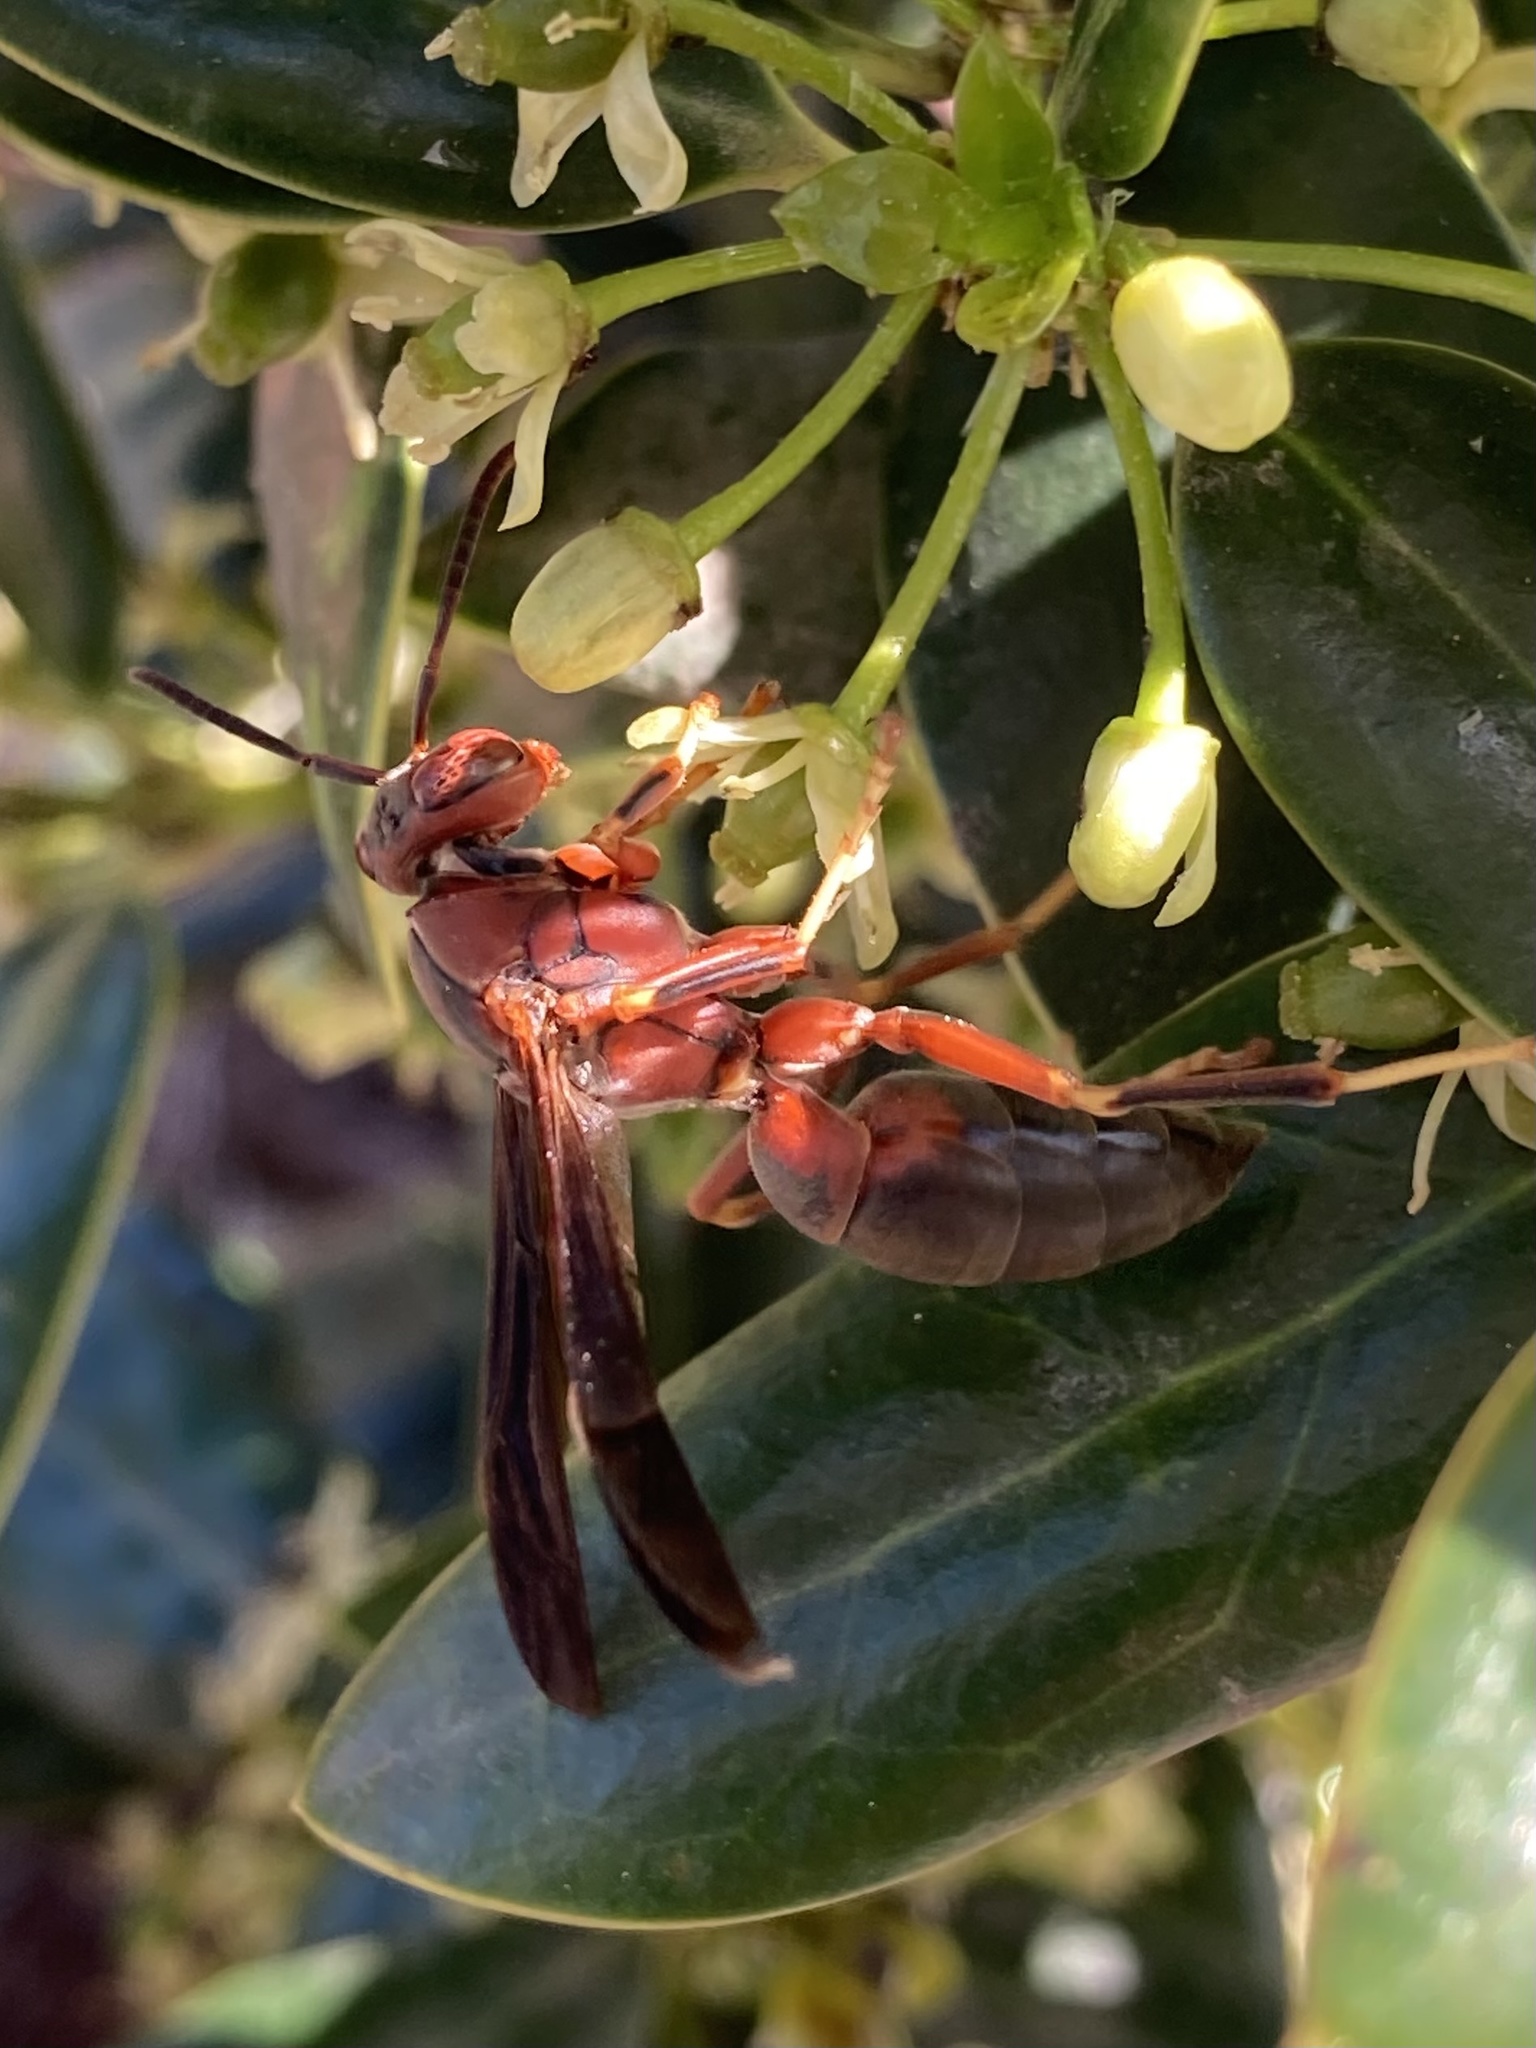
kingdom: Animalia
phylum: Arthropoda
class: Insecta
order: Hymenoptera
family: Eumenidae
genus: Polistes
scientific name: Polistes metricus
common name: Metric paper wasp
